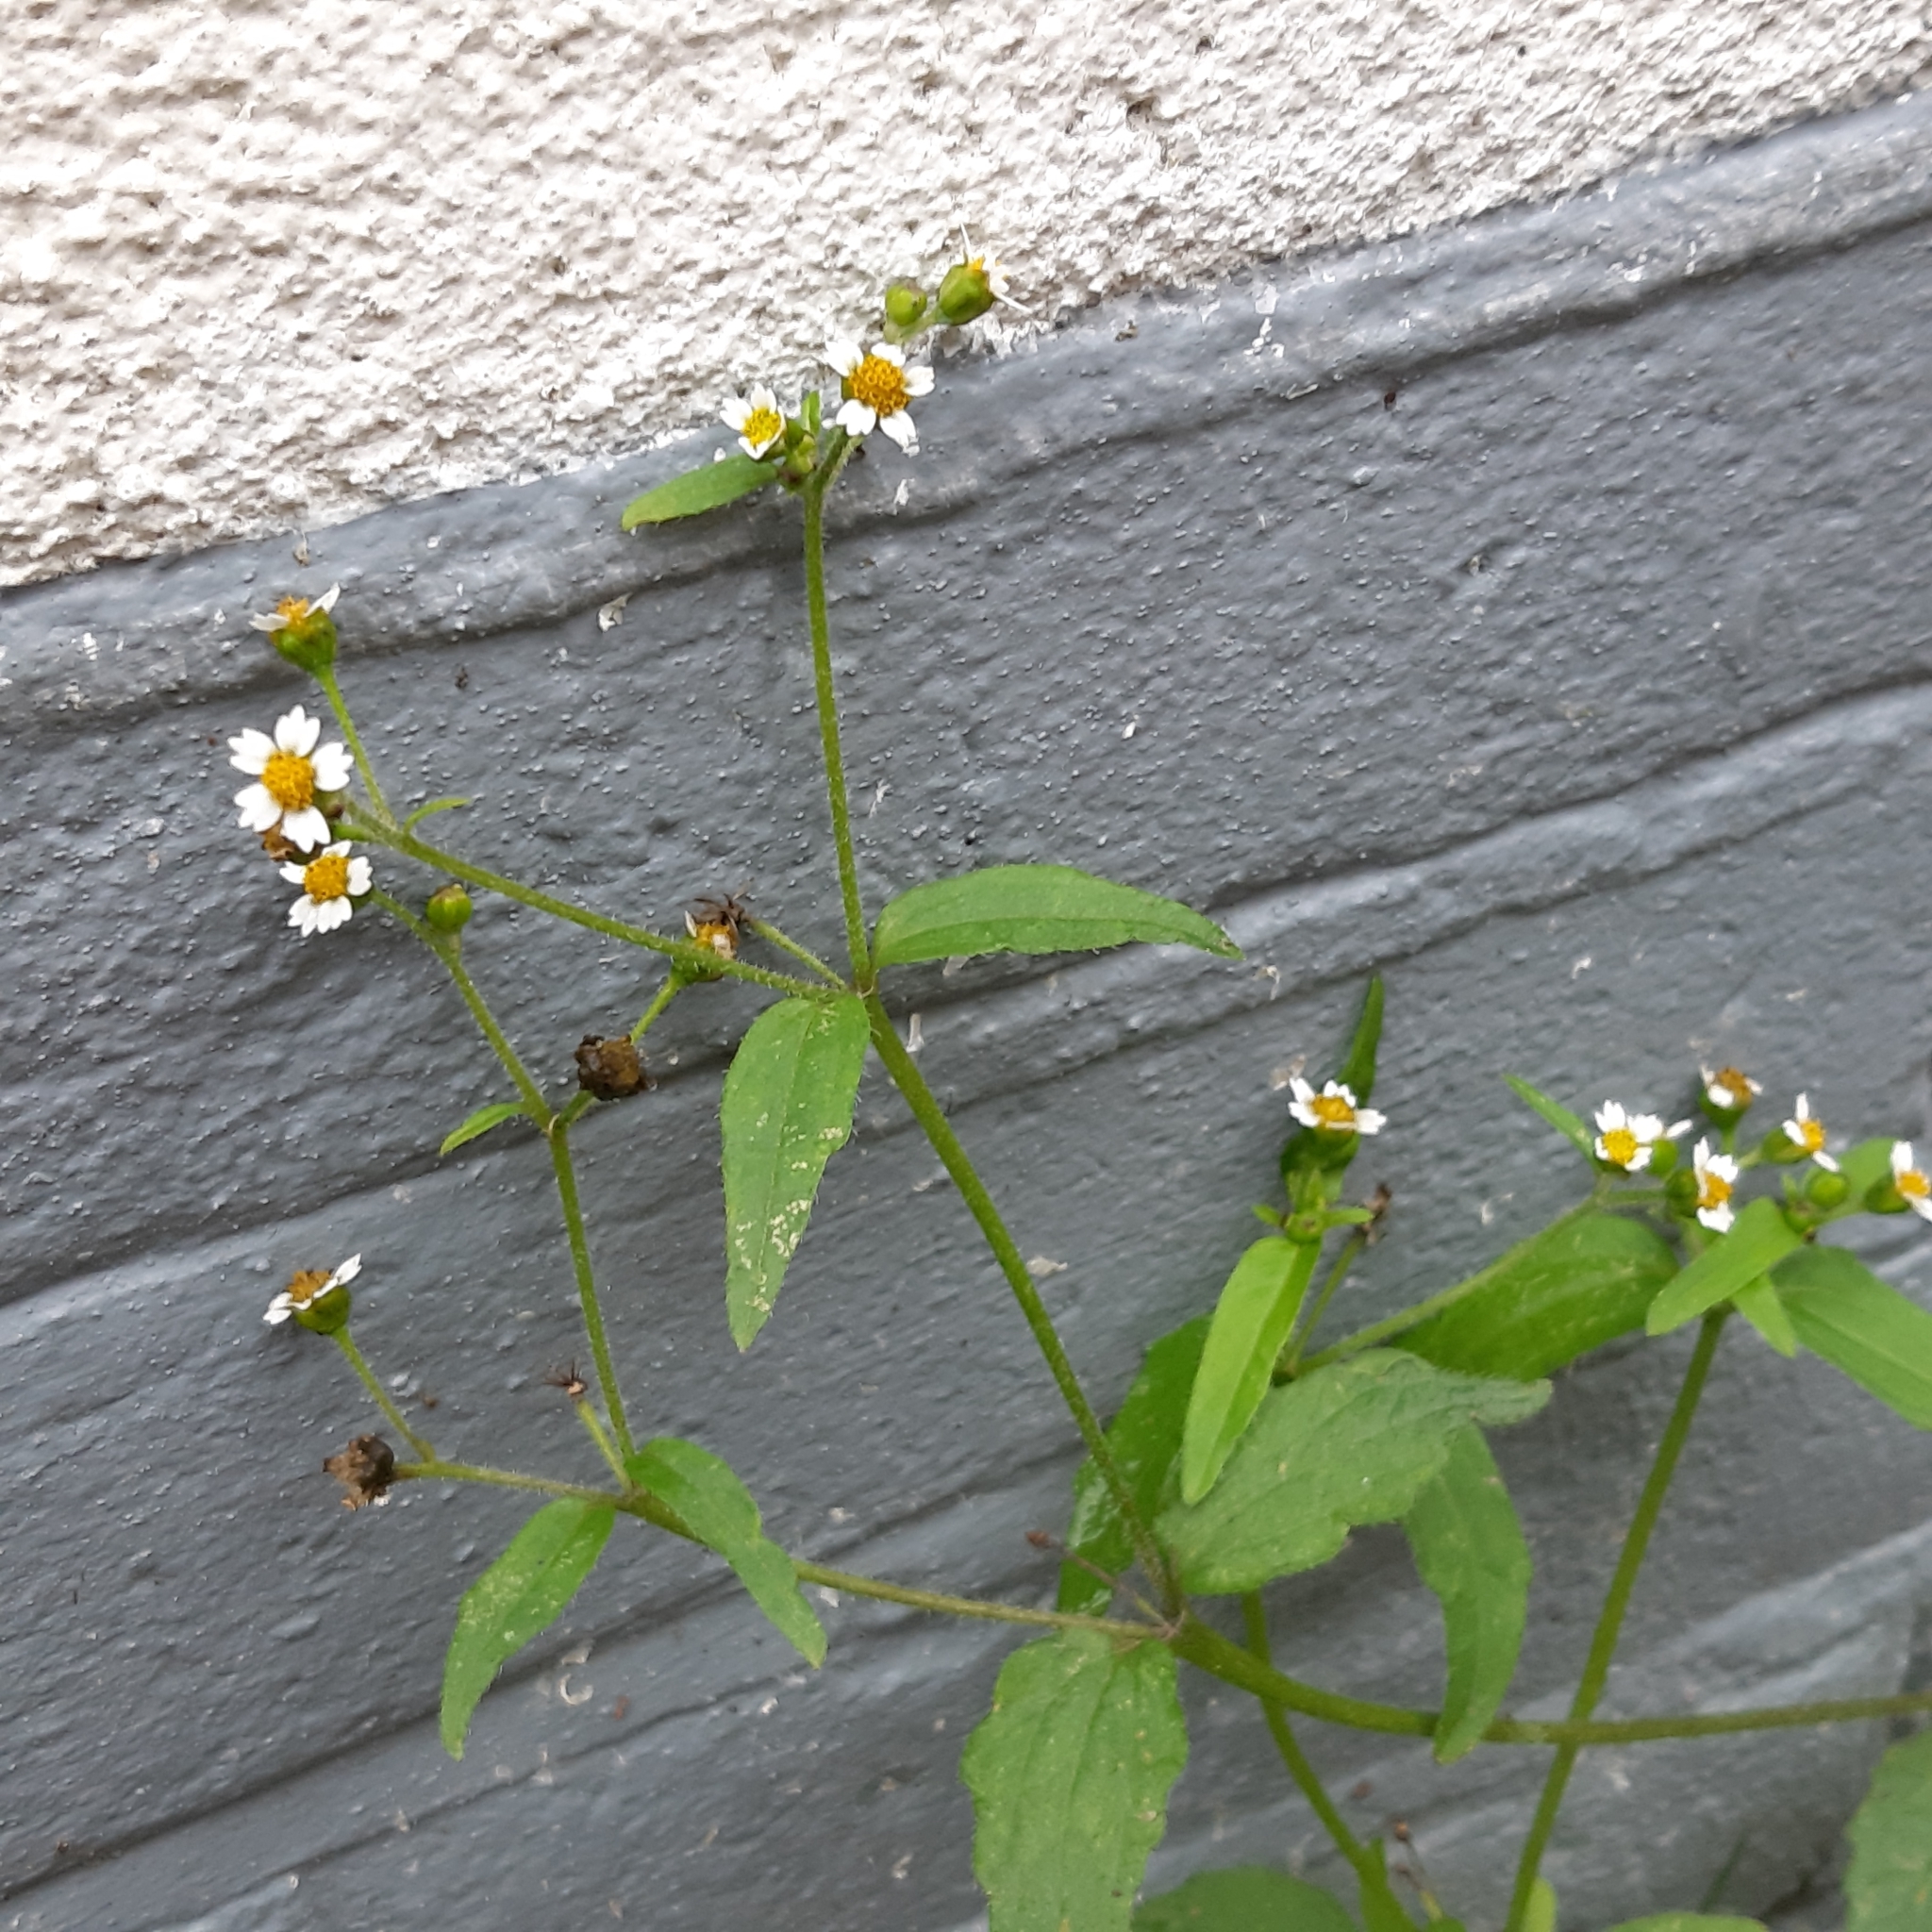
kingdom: Plantae
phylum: Tracheophyta
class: Magnoliopsida
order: Asterales
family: Asteraceae
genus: Galinsoga
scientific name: Galinsoga quadriradiata
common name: Shaggy soldier
